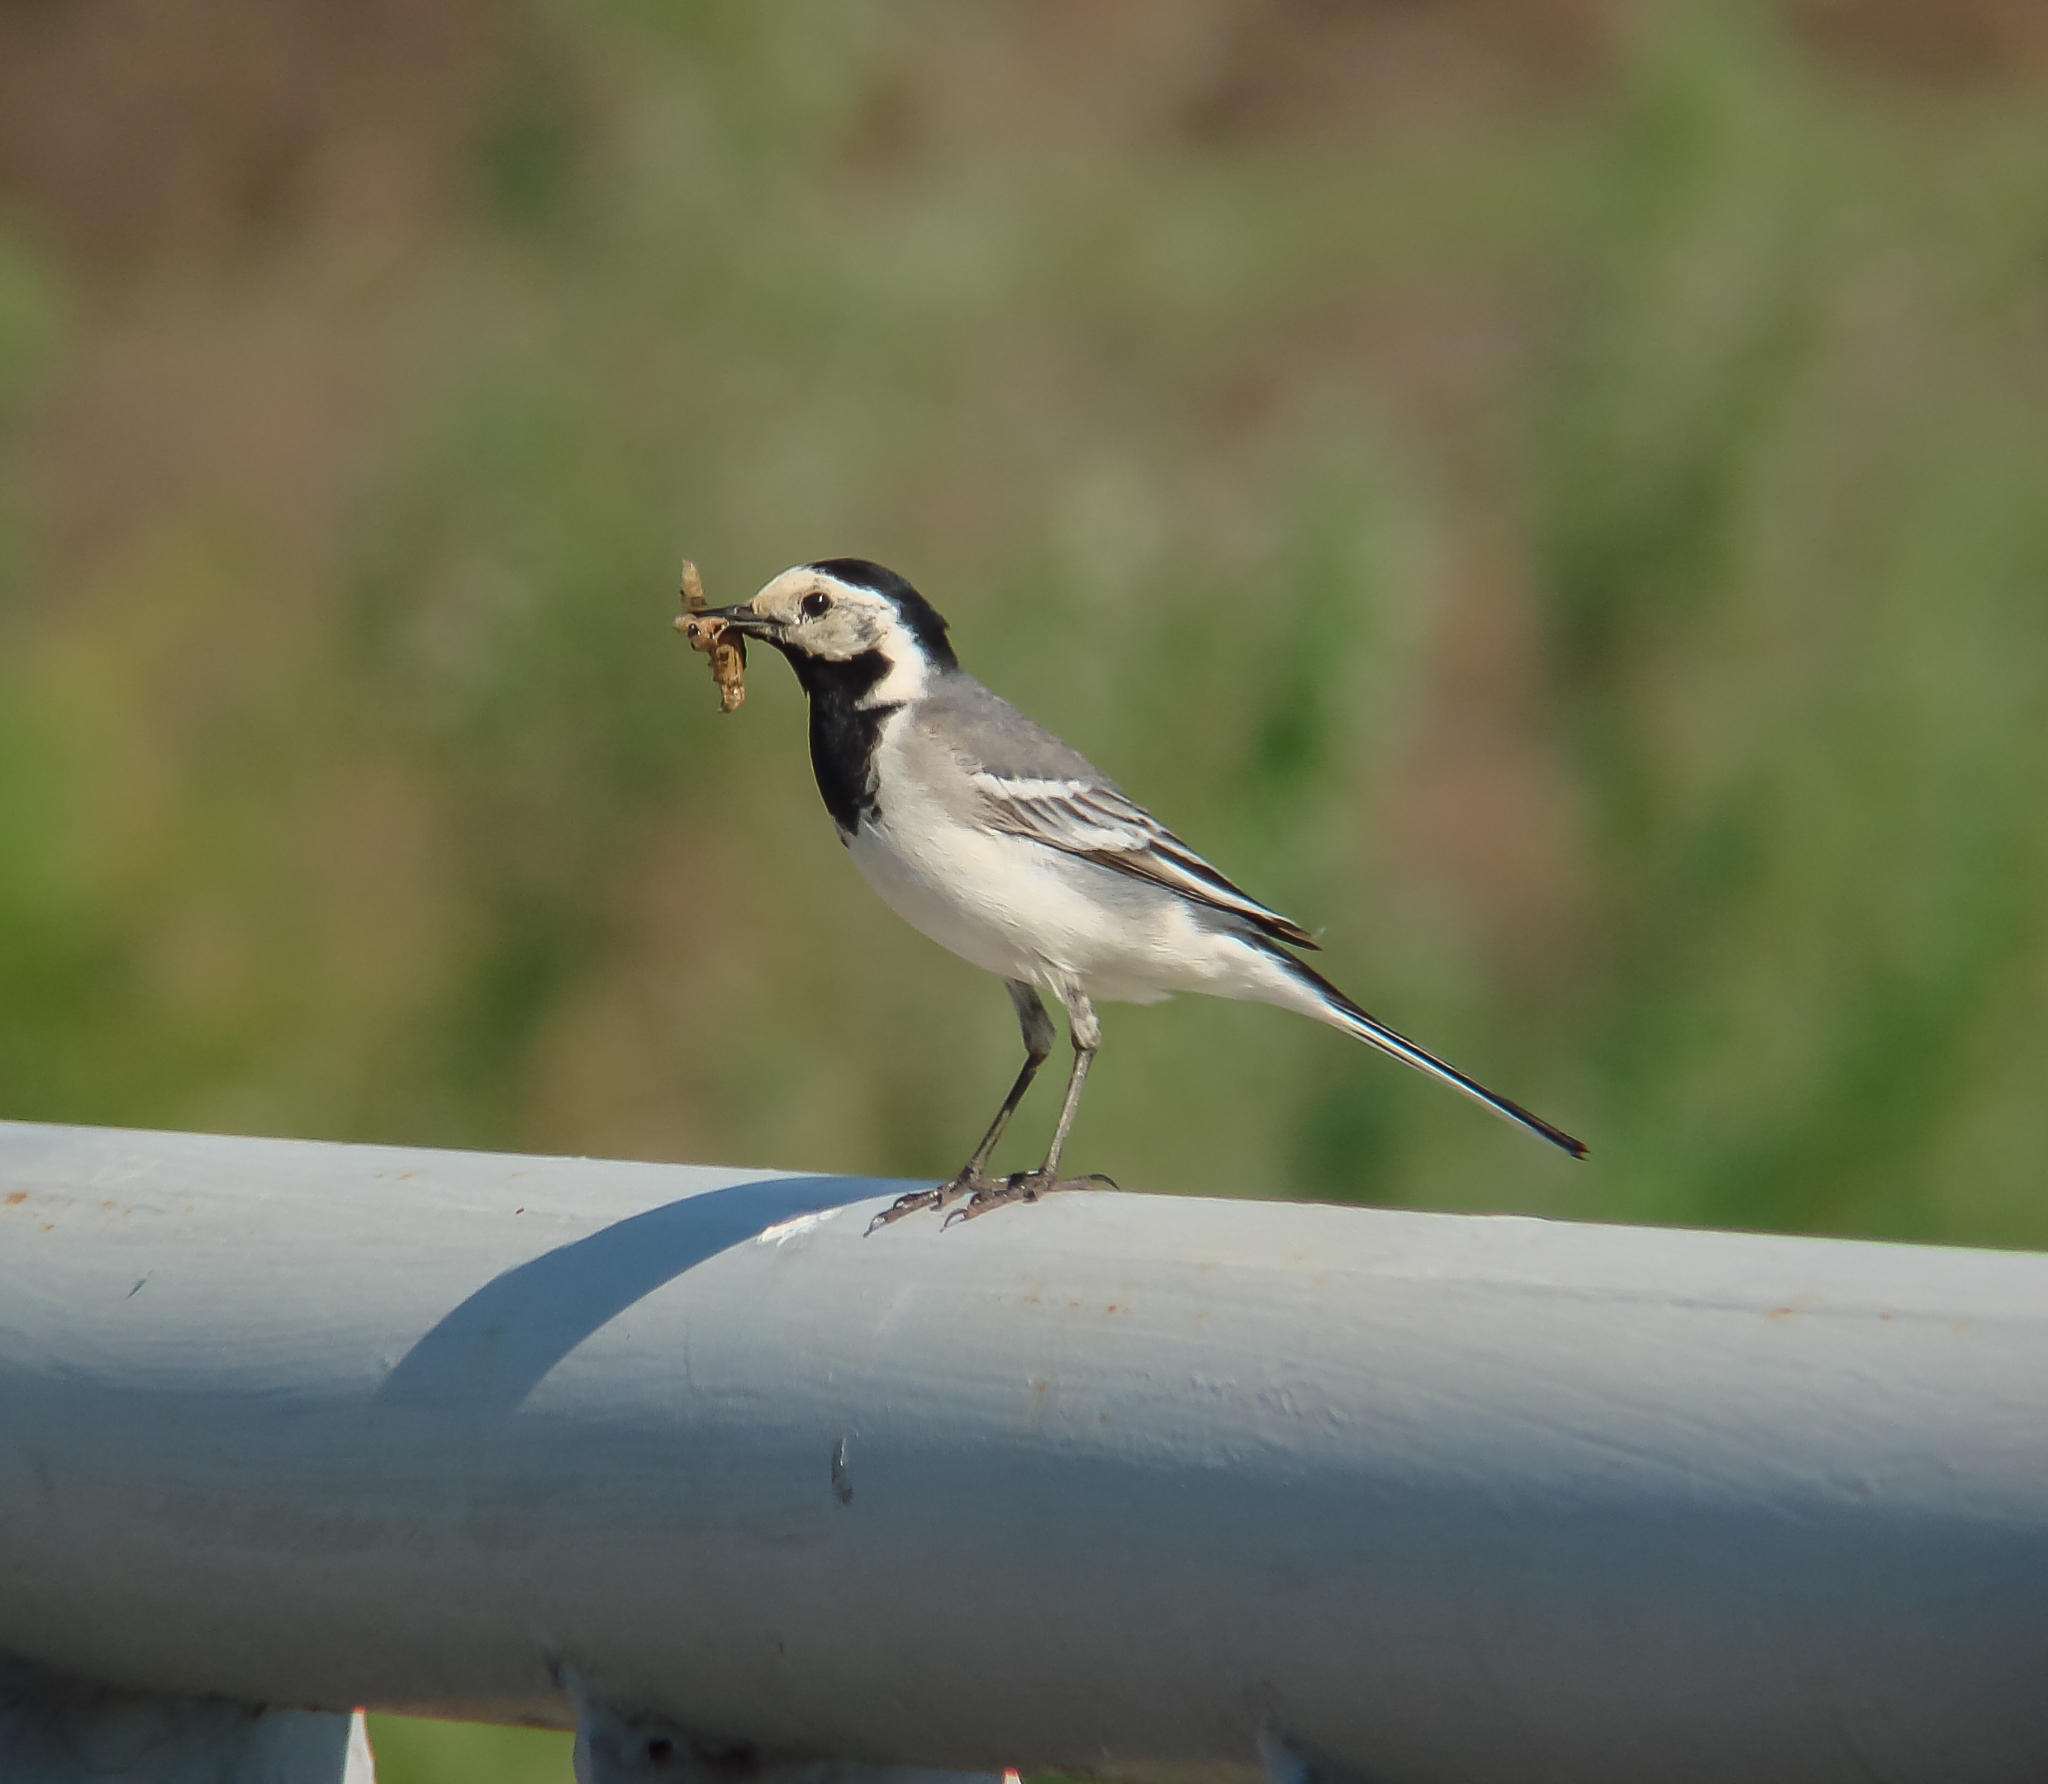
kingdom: Animalia
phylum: Chordata
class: Aves
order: Passeriformes
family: Motacillidae
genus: Motacilla
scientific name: Motacilla alba
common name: White wagtail
